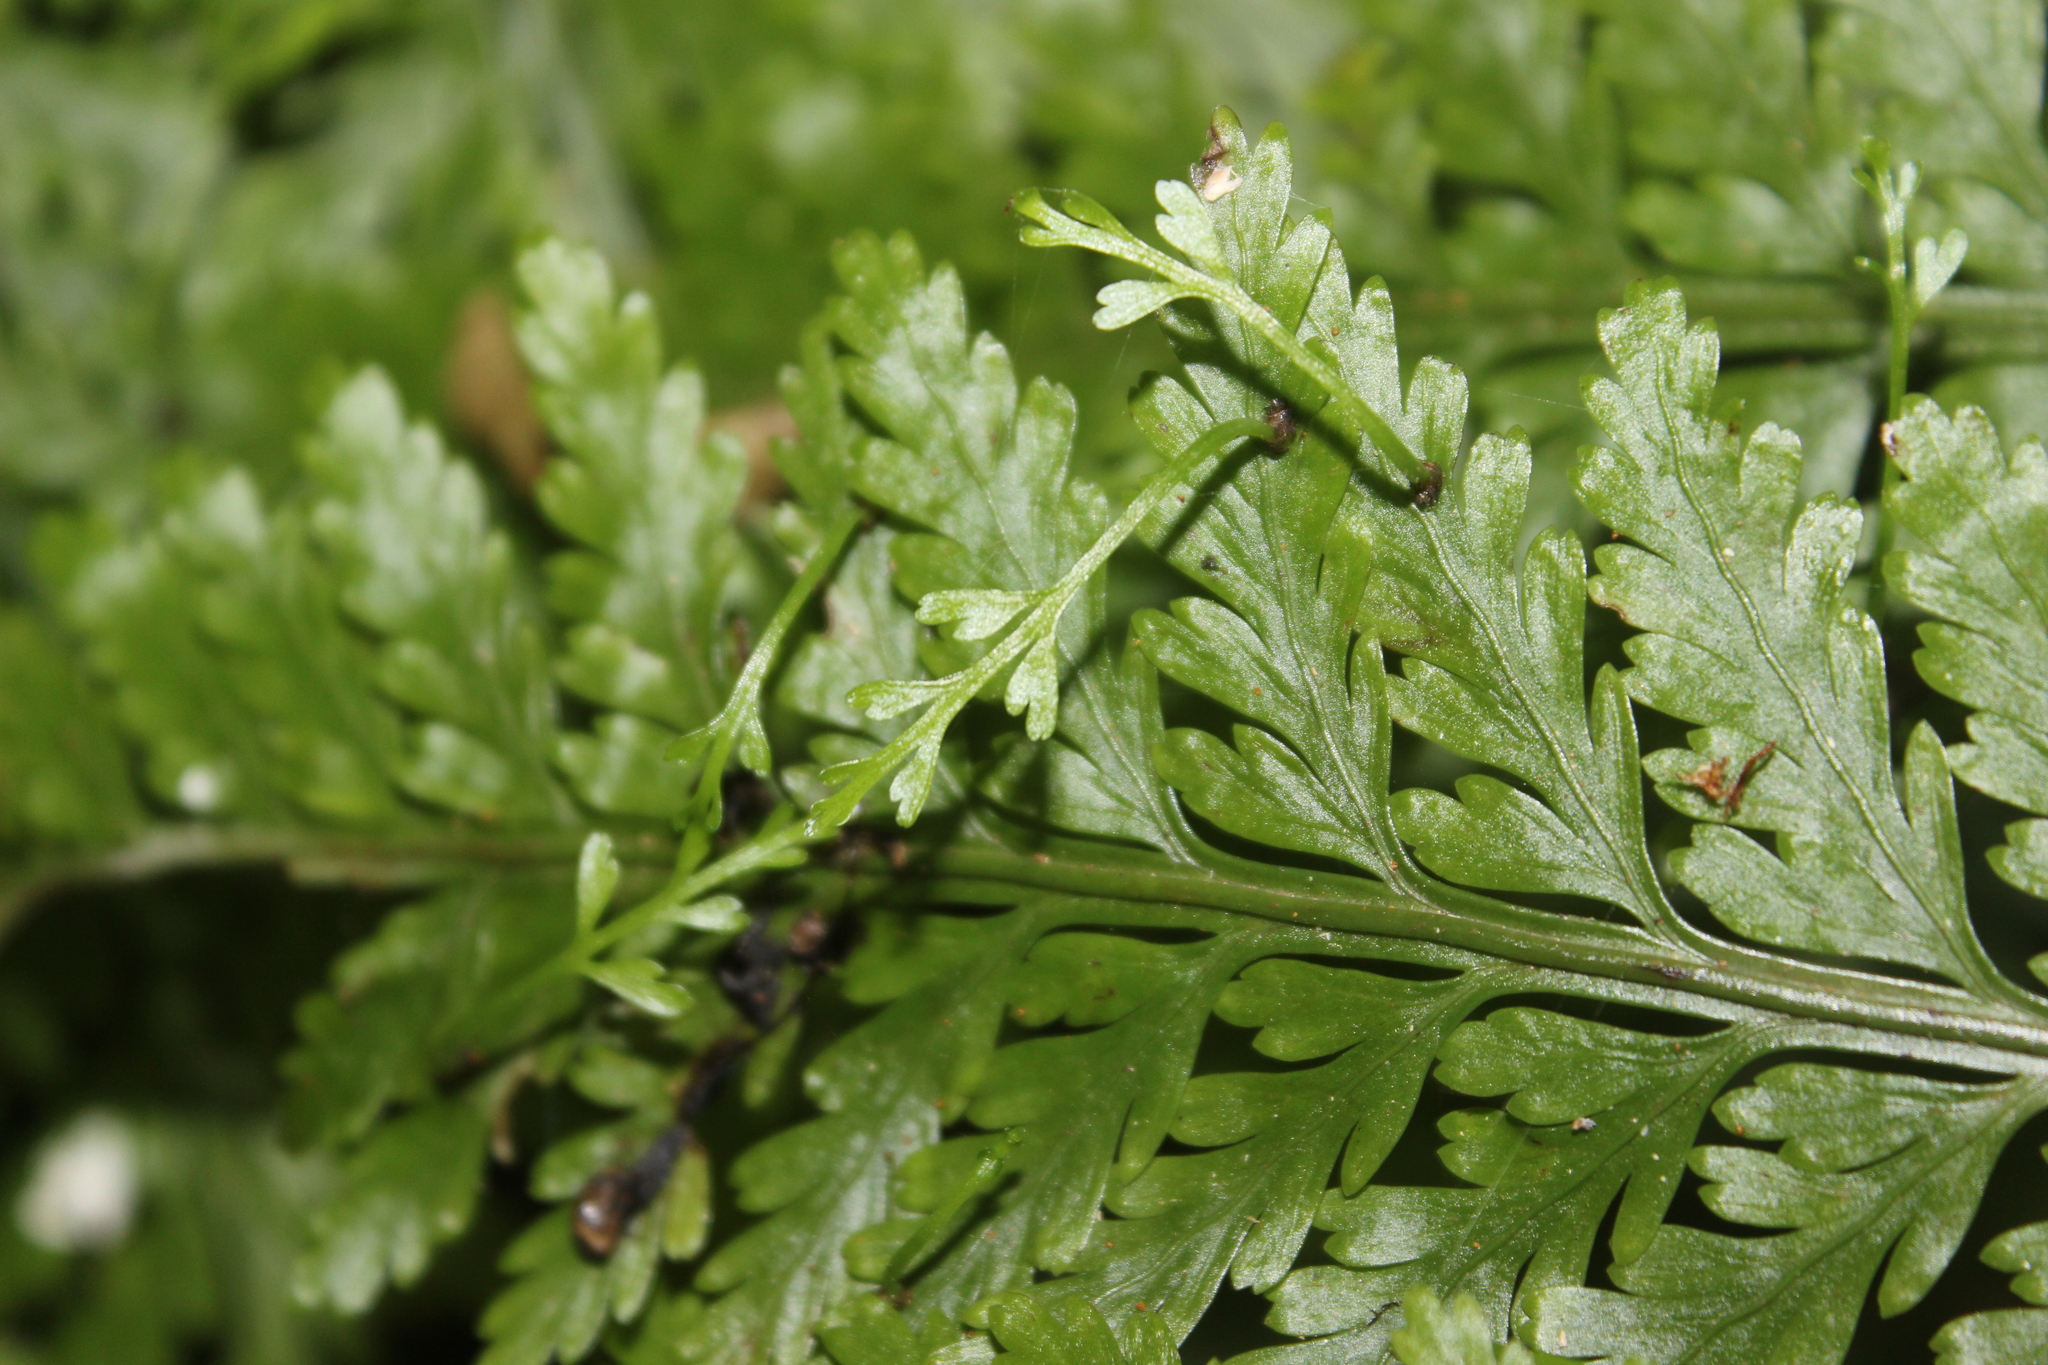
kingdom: Plantae
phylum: Tracheophyta
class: Polypodiopsida
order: Polypodiales
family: Aspleniaceae
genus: Asplenium
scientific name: Asplenium bulbiferum
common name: Mother fern
